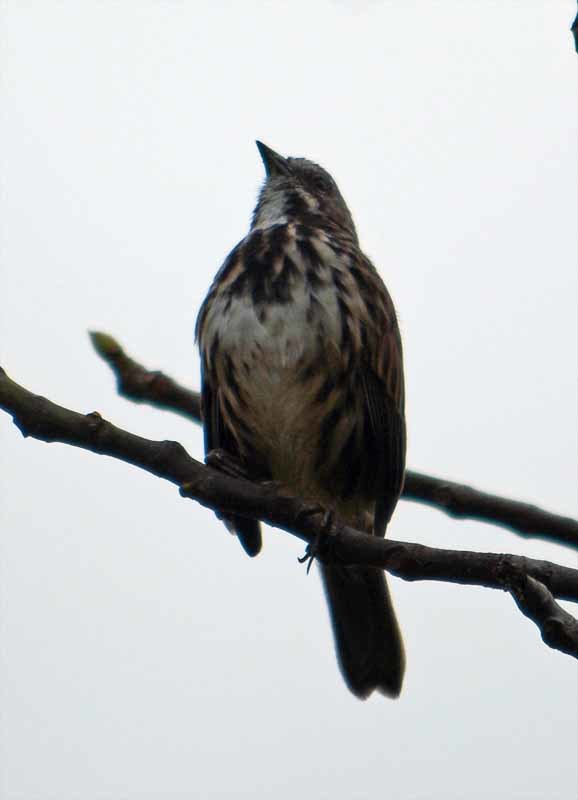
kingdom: Animalia
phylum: Chordata
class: Aves
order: Passeriformes
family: Passerellidae
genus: Melospiza
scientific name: Melospiza melodia
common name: Song sparrow
